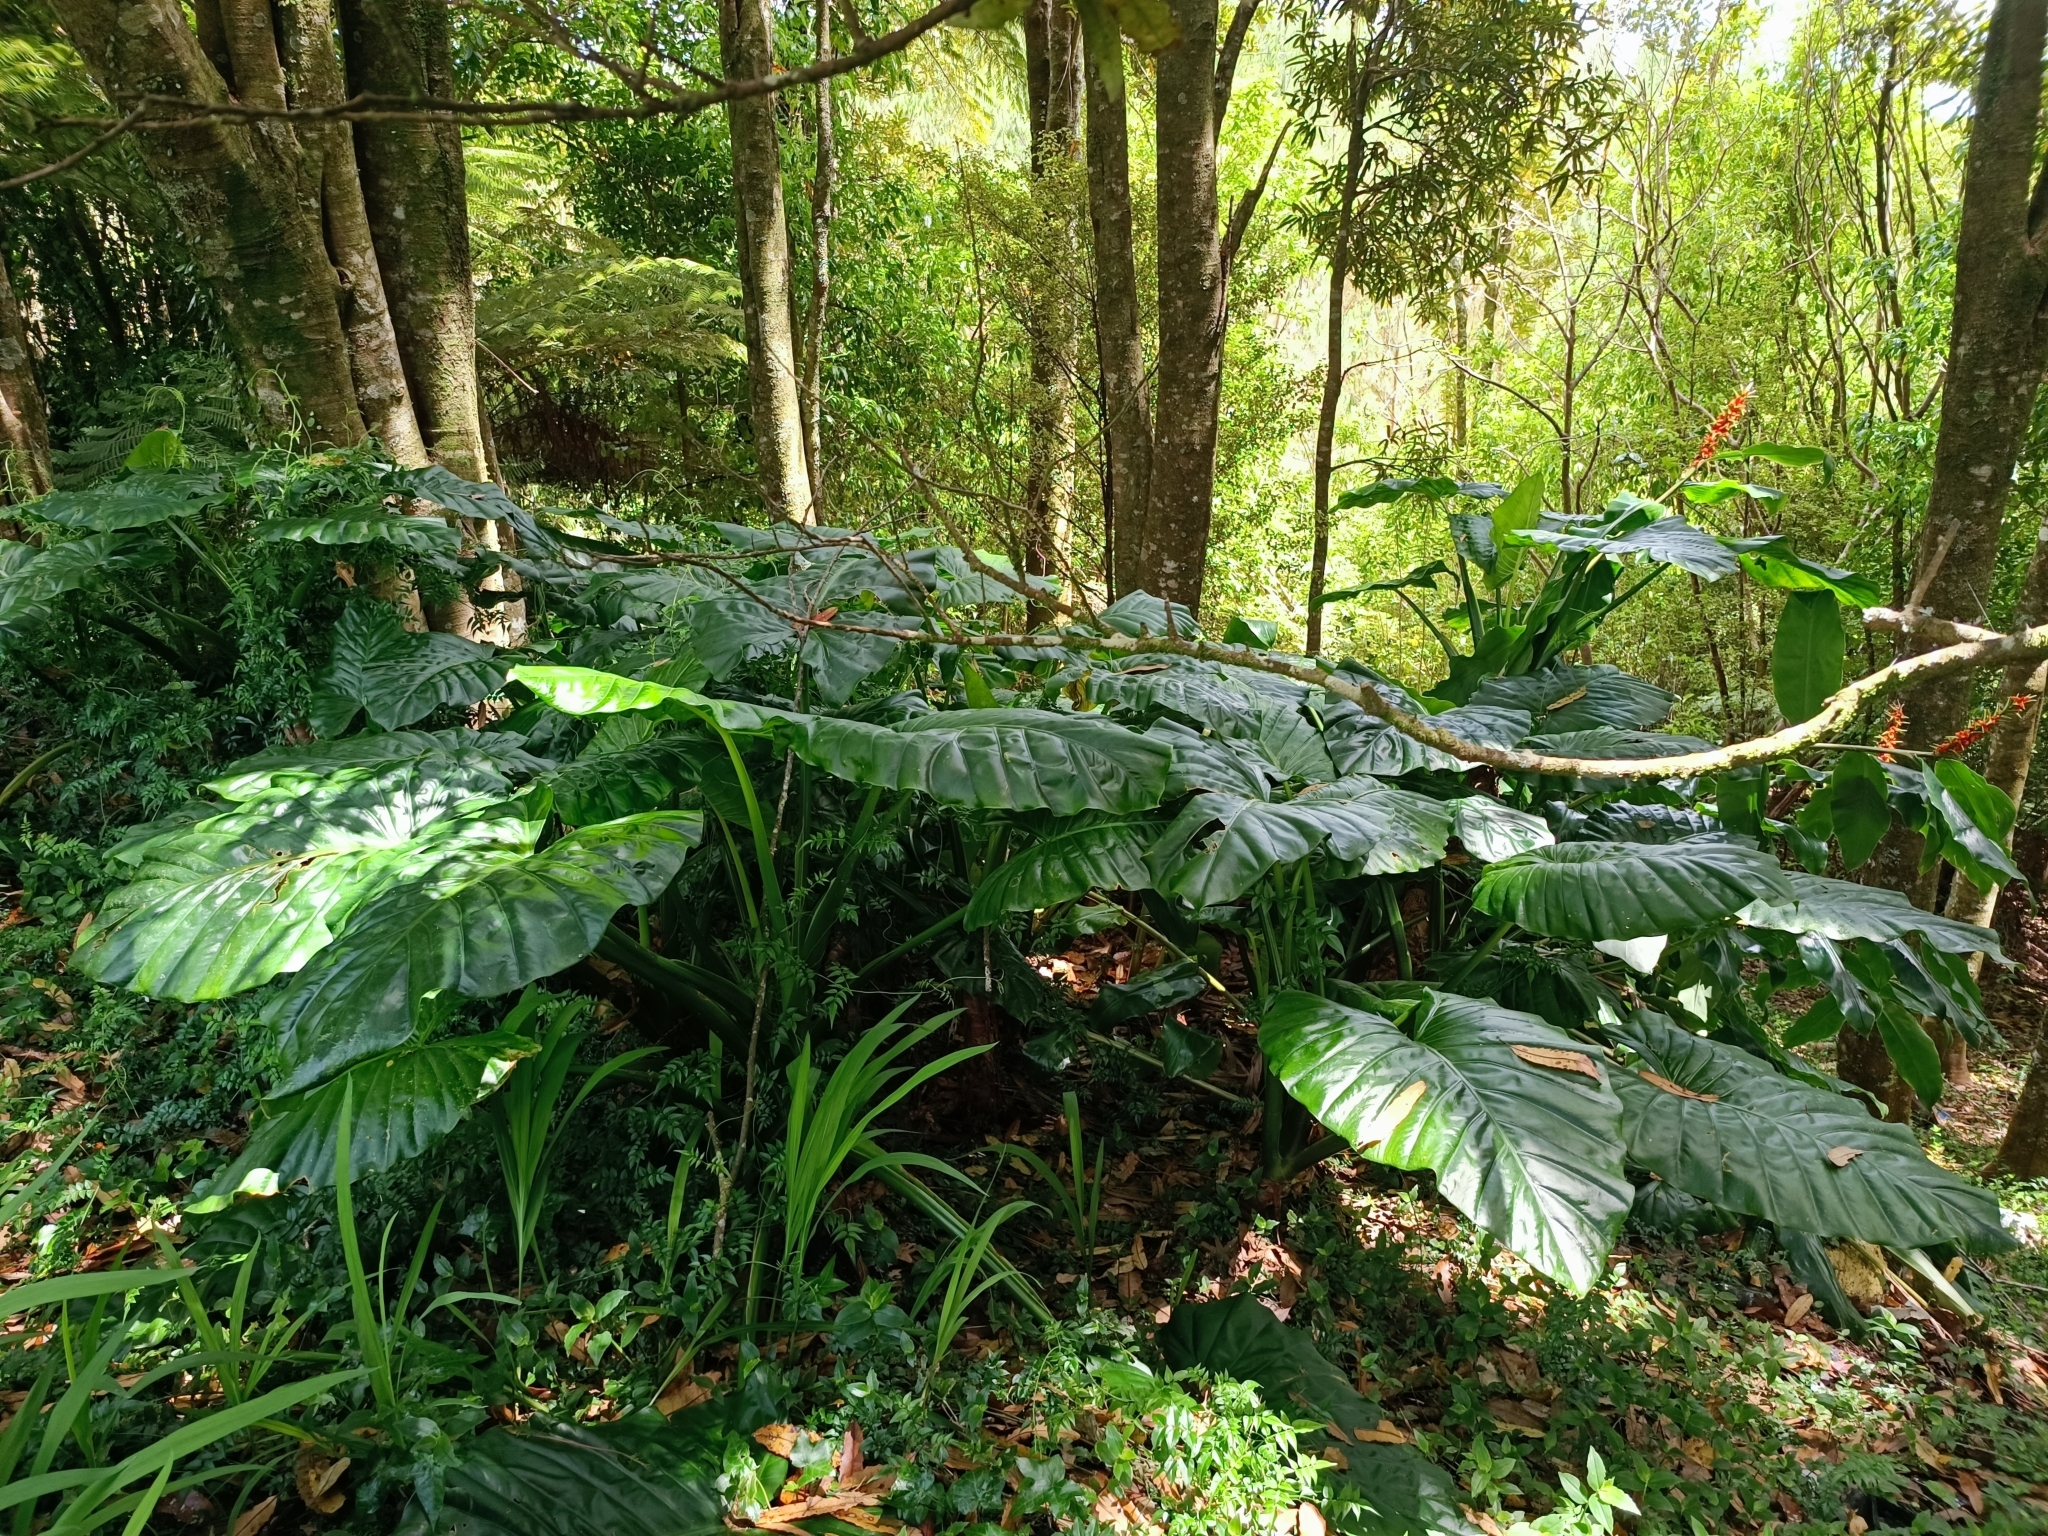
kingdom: Plantae
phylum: Tracheophyta
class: Liliopsida
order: Alismatales
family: Araceae
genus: Alocasia
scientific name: Alocasia brisbanensis
